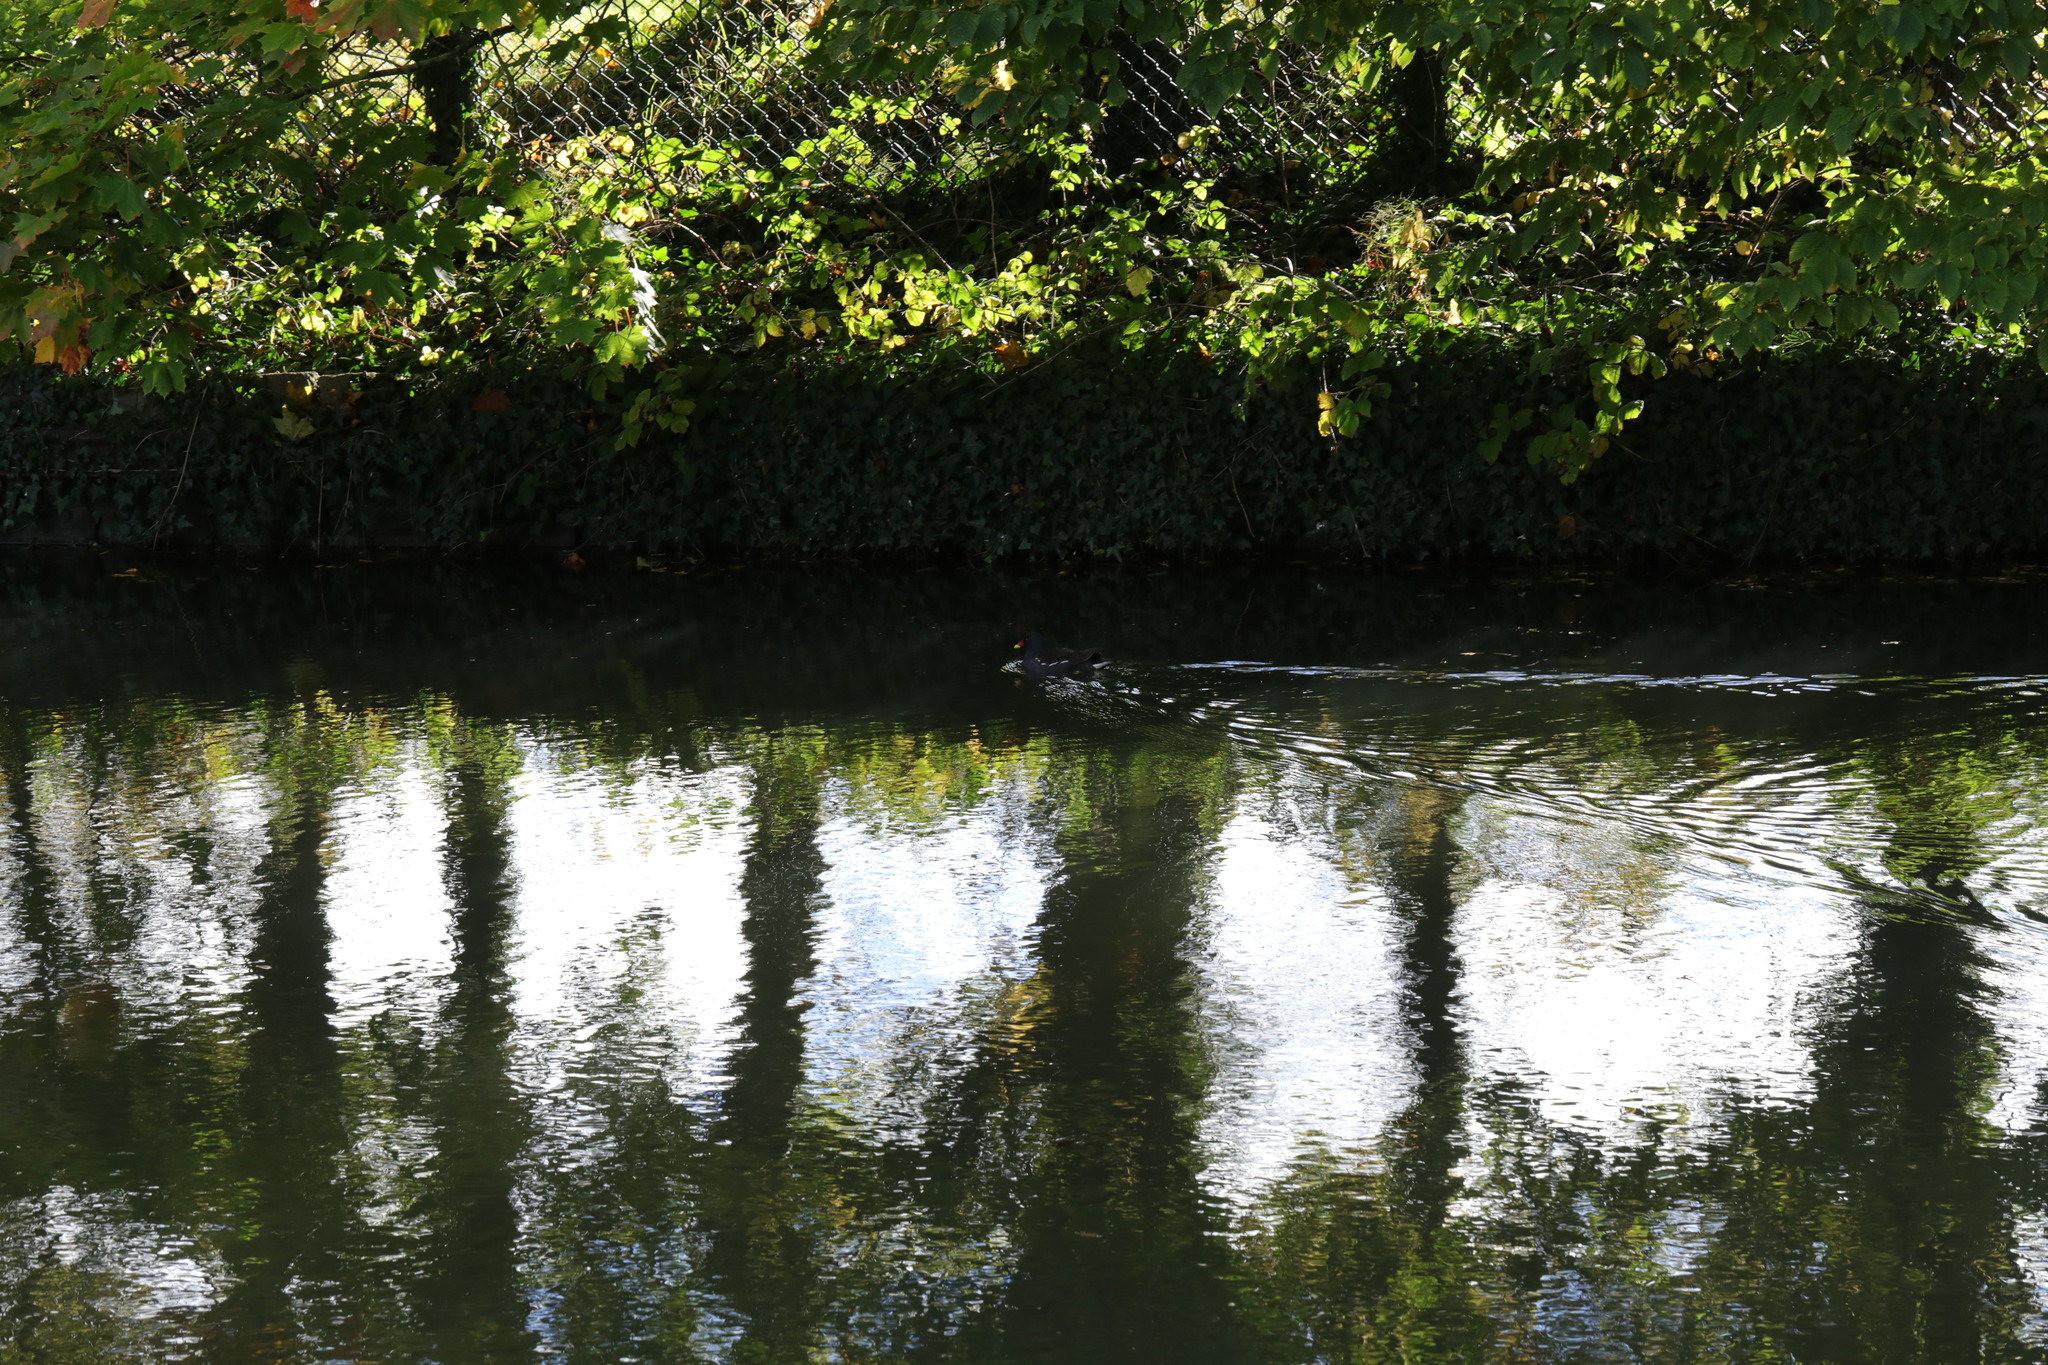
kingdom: Animalia
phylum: Chordata
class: Aves
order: Gruiformes
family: Rallidae
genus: Gallinula
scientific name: Gallinula chloropus
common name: Common moorhen
